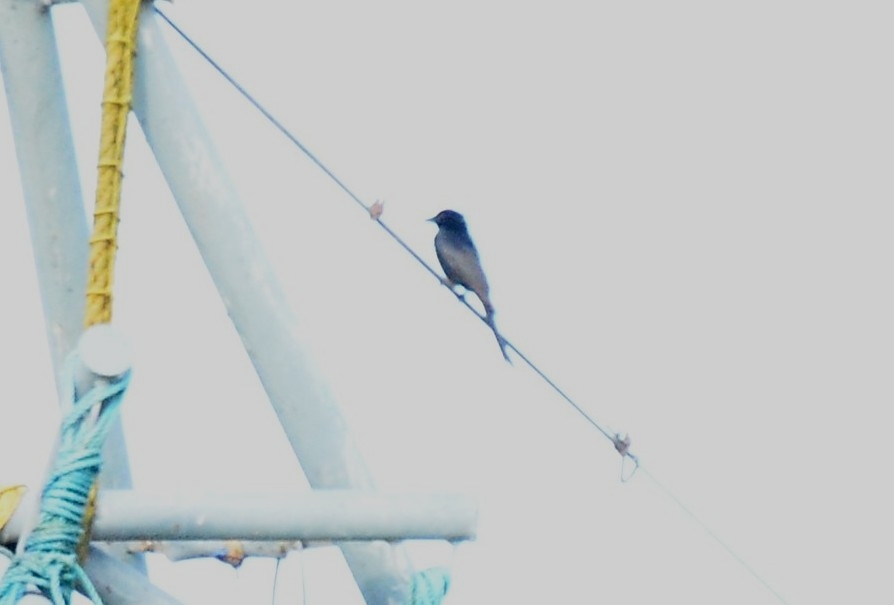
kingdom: Animalia
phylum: Chordata
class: Aves
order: Passeriformes
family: Dicruridae
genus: Dicrurus
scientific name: Dicrurus macrocercus
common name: Black drongo
